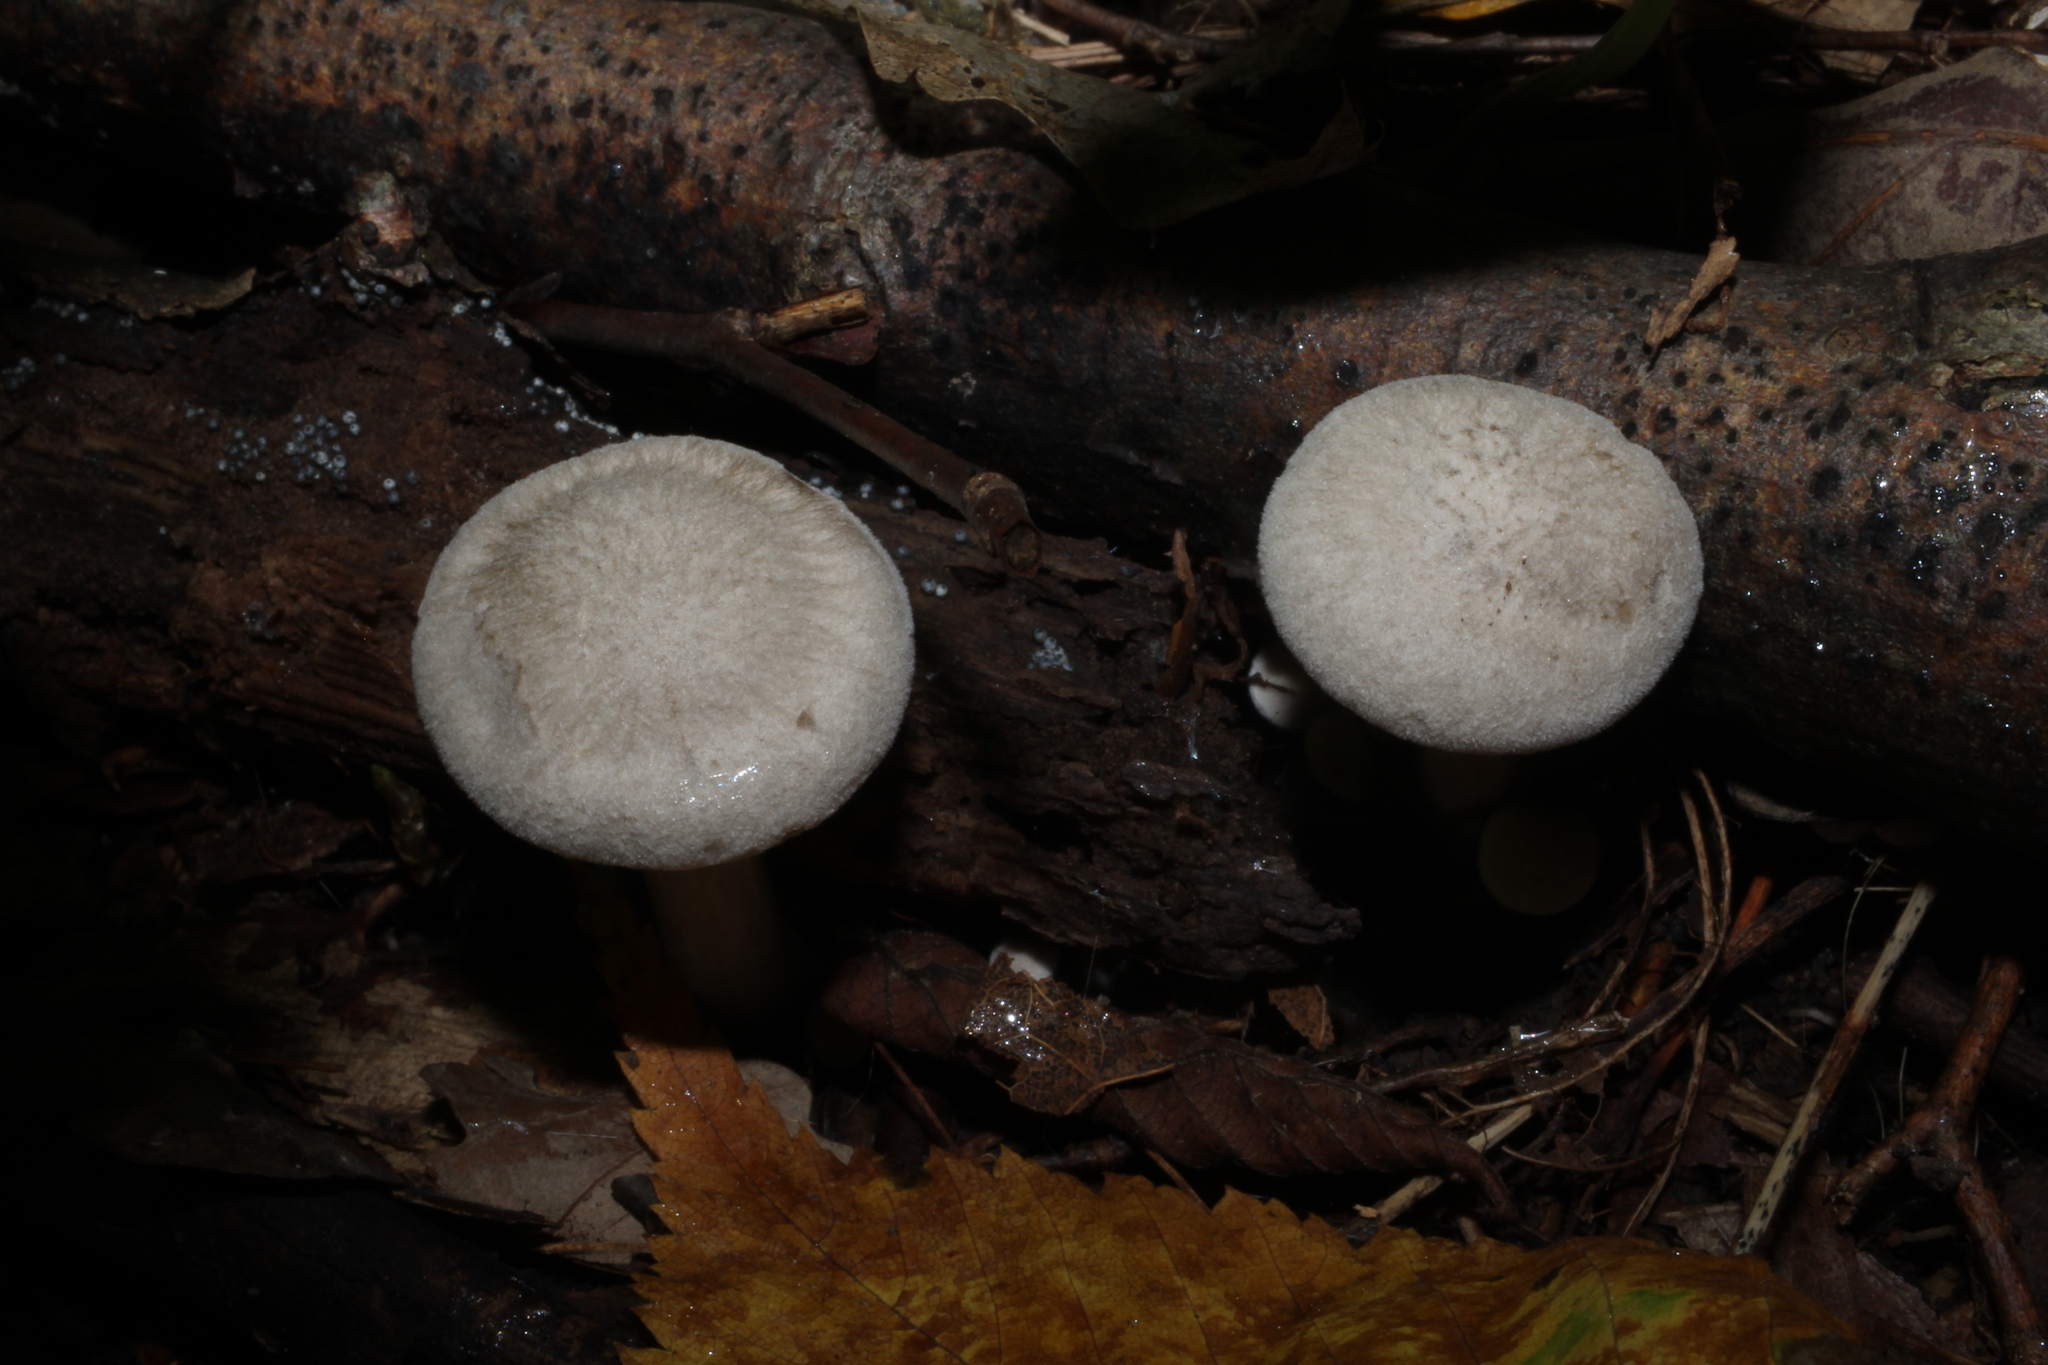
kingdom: Fungi
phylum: Basidiomycota
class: Agaricomycetes
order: Agaricales
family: Entolomataceae
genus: Entoloma
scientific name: Entoloma abortivum
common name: Aborted entoloma
